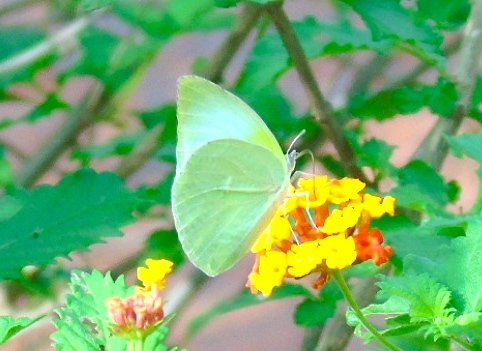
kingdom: Animalia
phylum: Arthropoda
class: Insecta
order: Lepidoptera
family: Pieridae
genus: Kricogonia
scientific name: Kricogonia lyside
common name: Guayacan sulphur,
